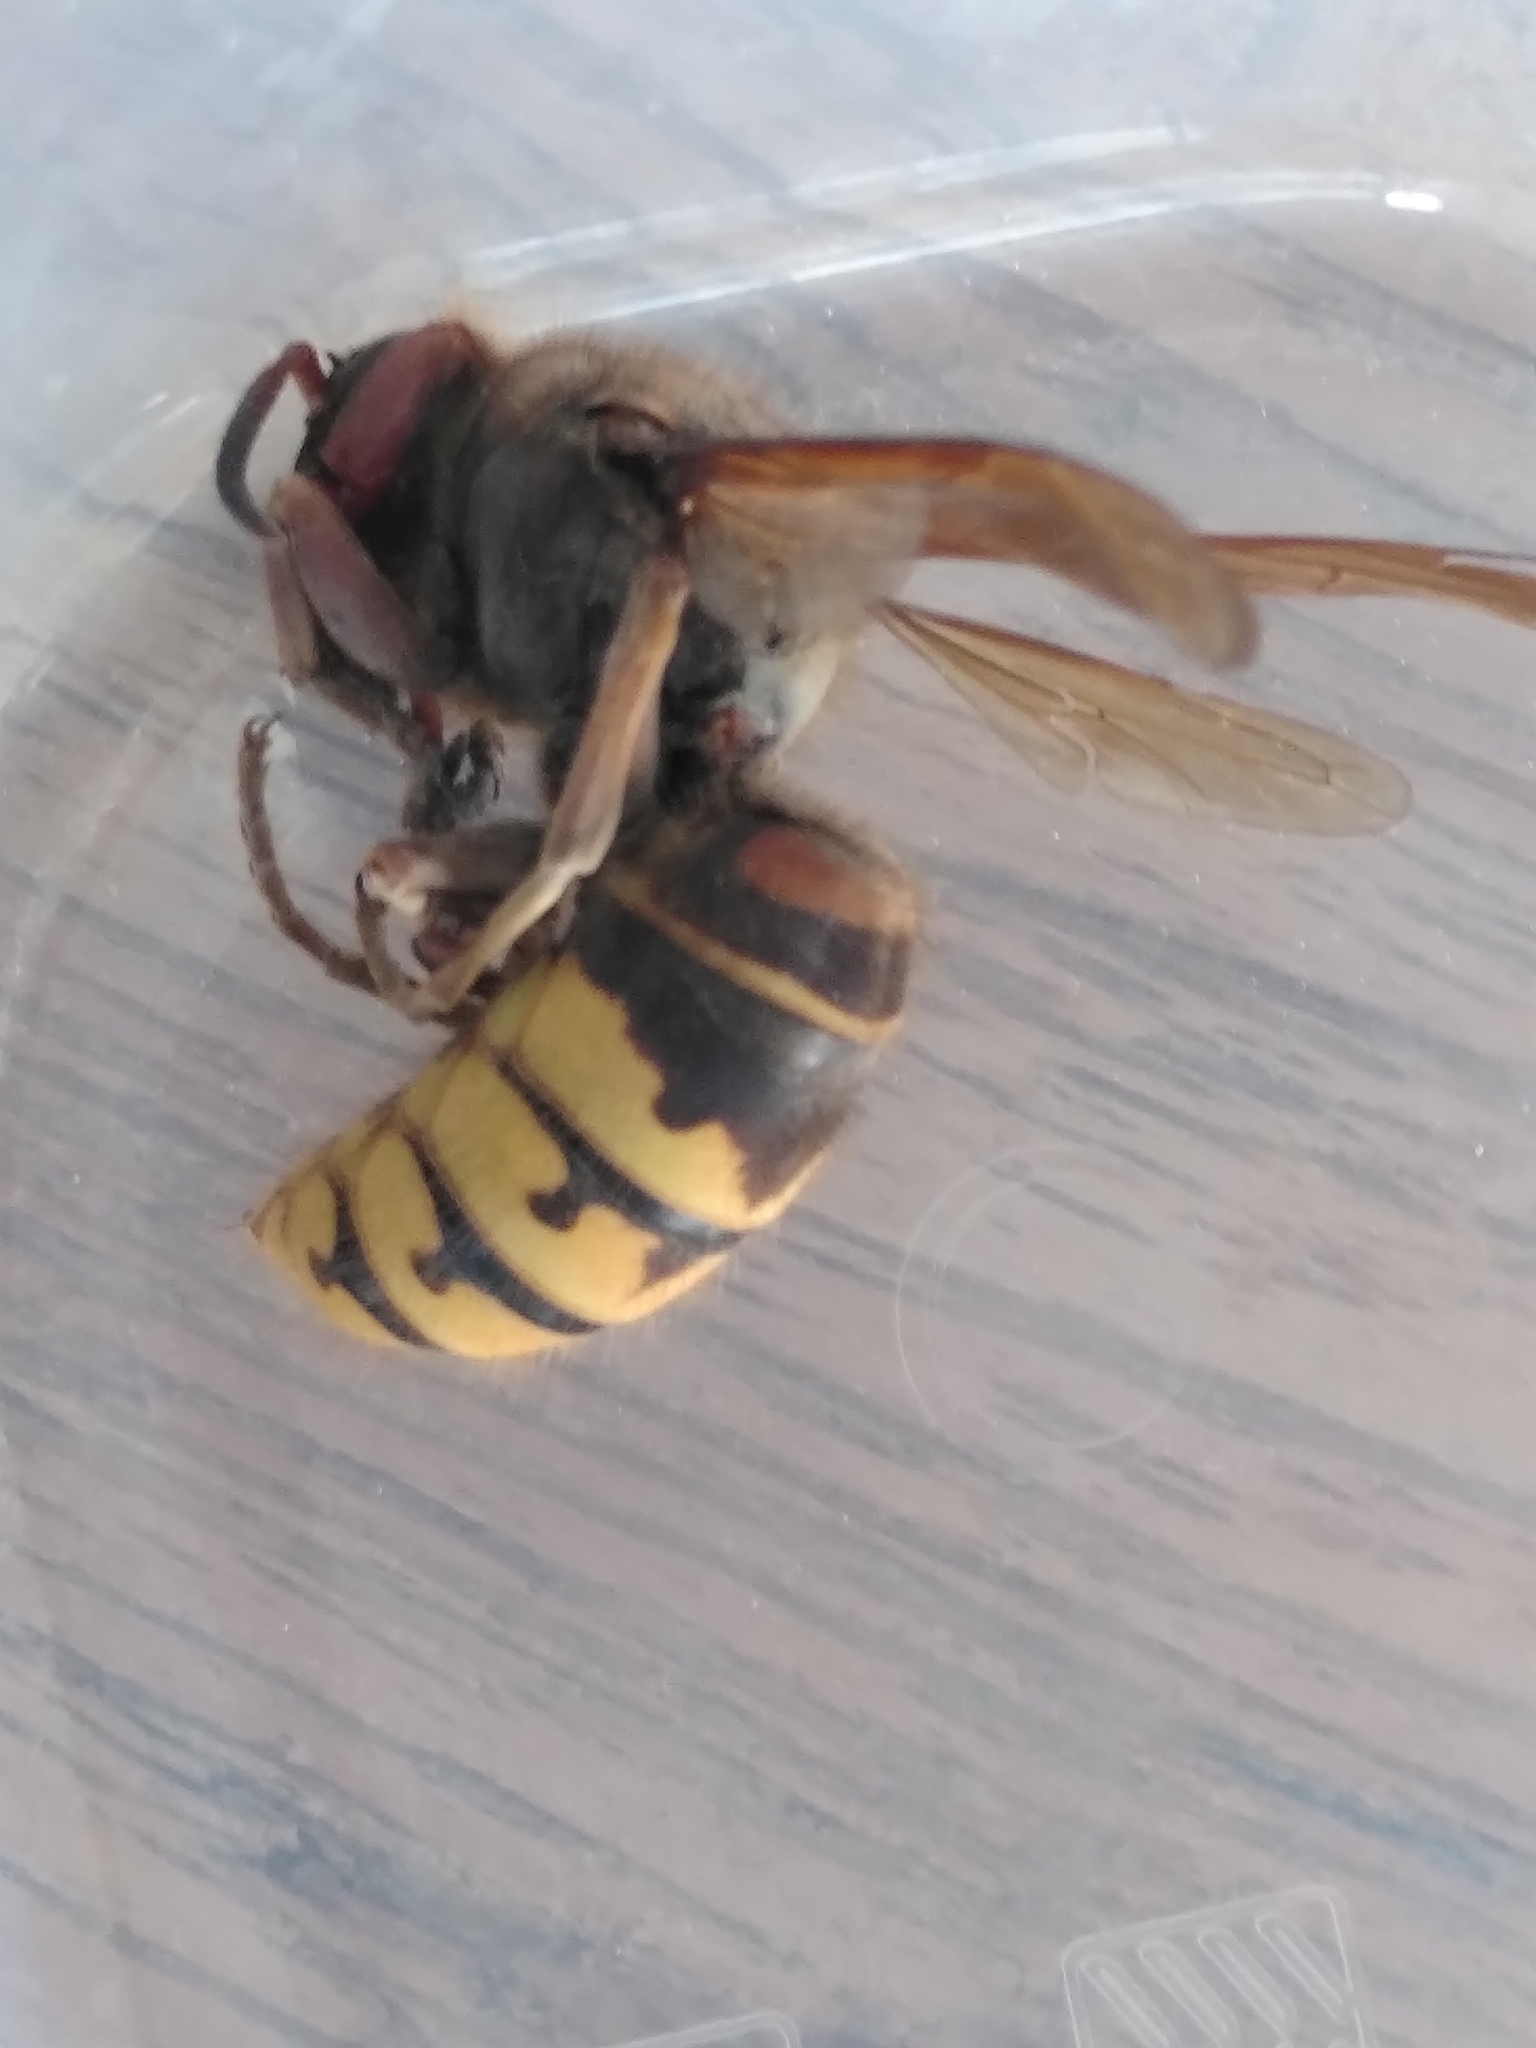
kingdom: Animalia
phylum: Arthropoda
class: Insecta
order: Hymenoptera
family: Vespidae
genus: Vespa
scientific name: Vespa crabro
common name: Hornet
